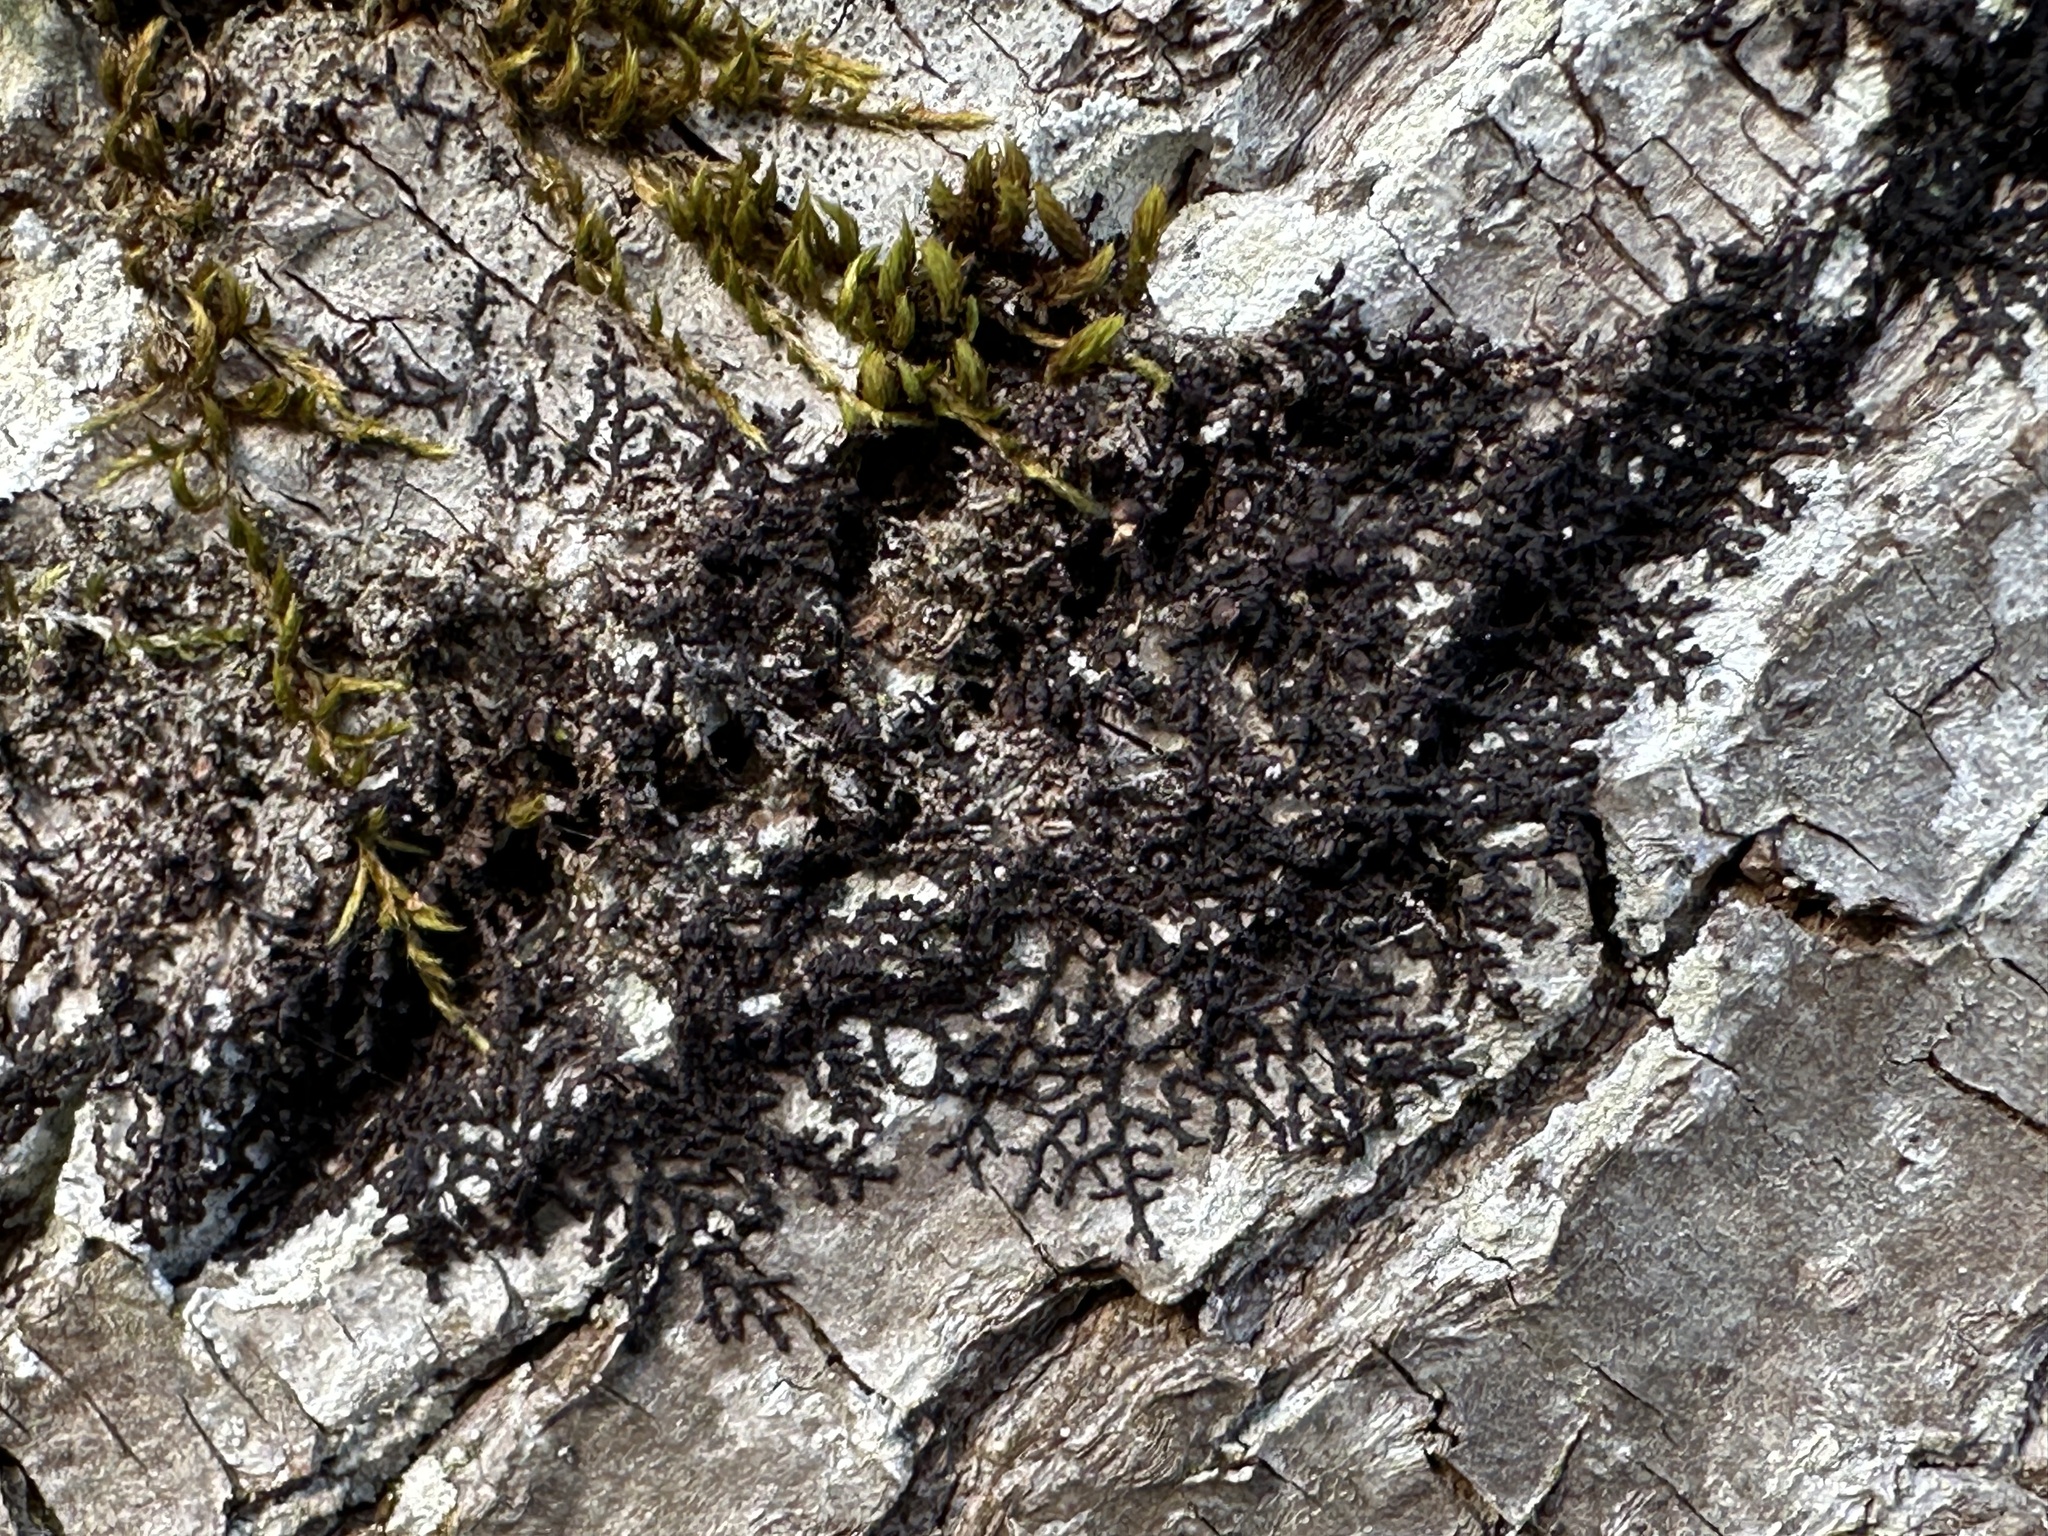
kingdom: Plantae
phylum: Marchantiophyta
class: Jungermanniopsida
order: Porellales
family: Frullaniaceae
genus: Frullania
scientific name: Frullania dilatata
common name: Dilated scalewort
